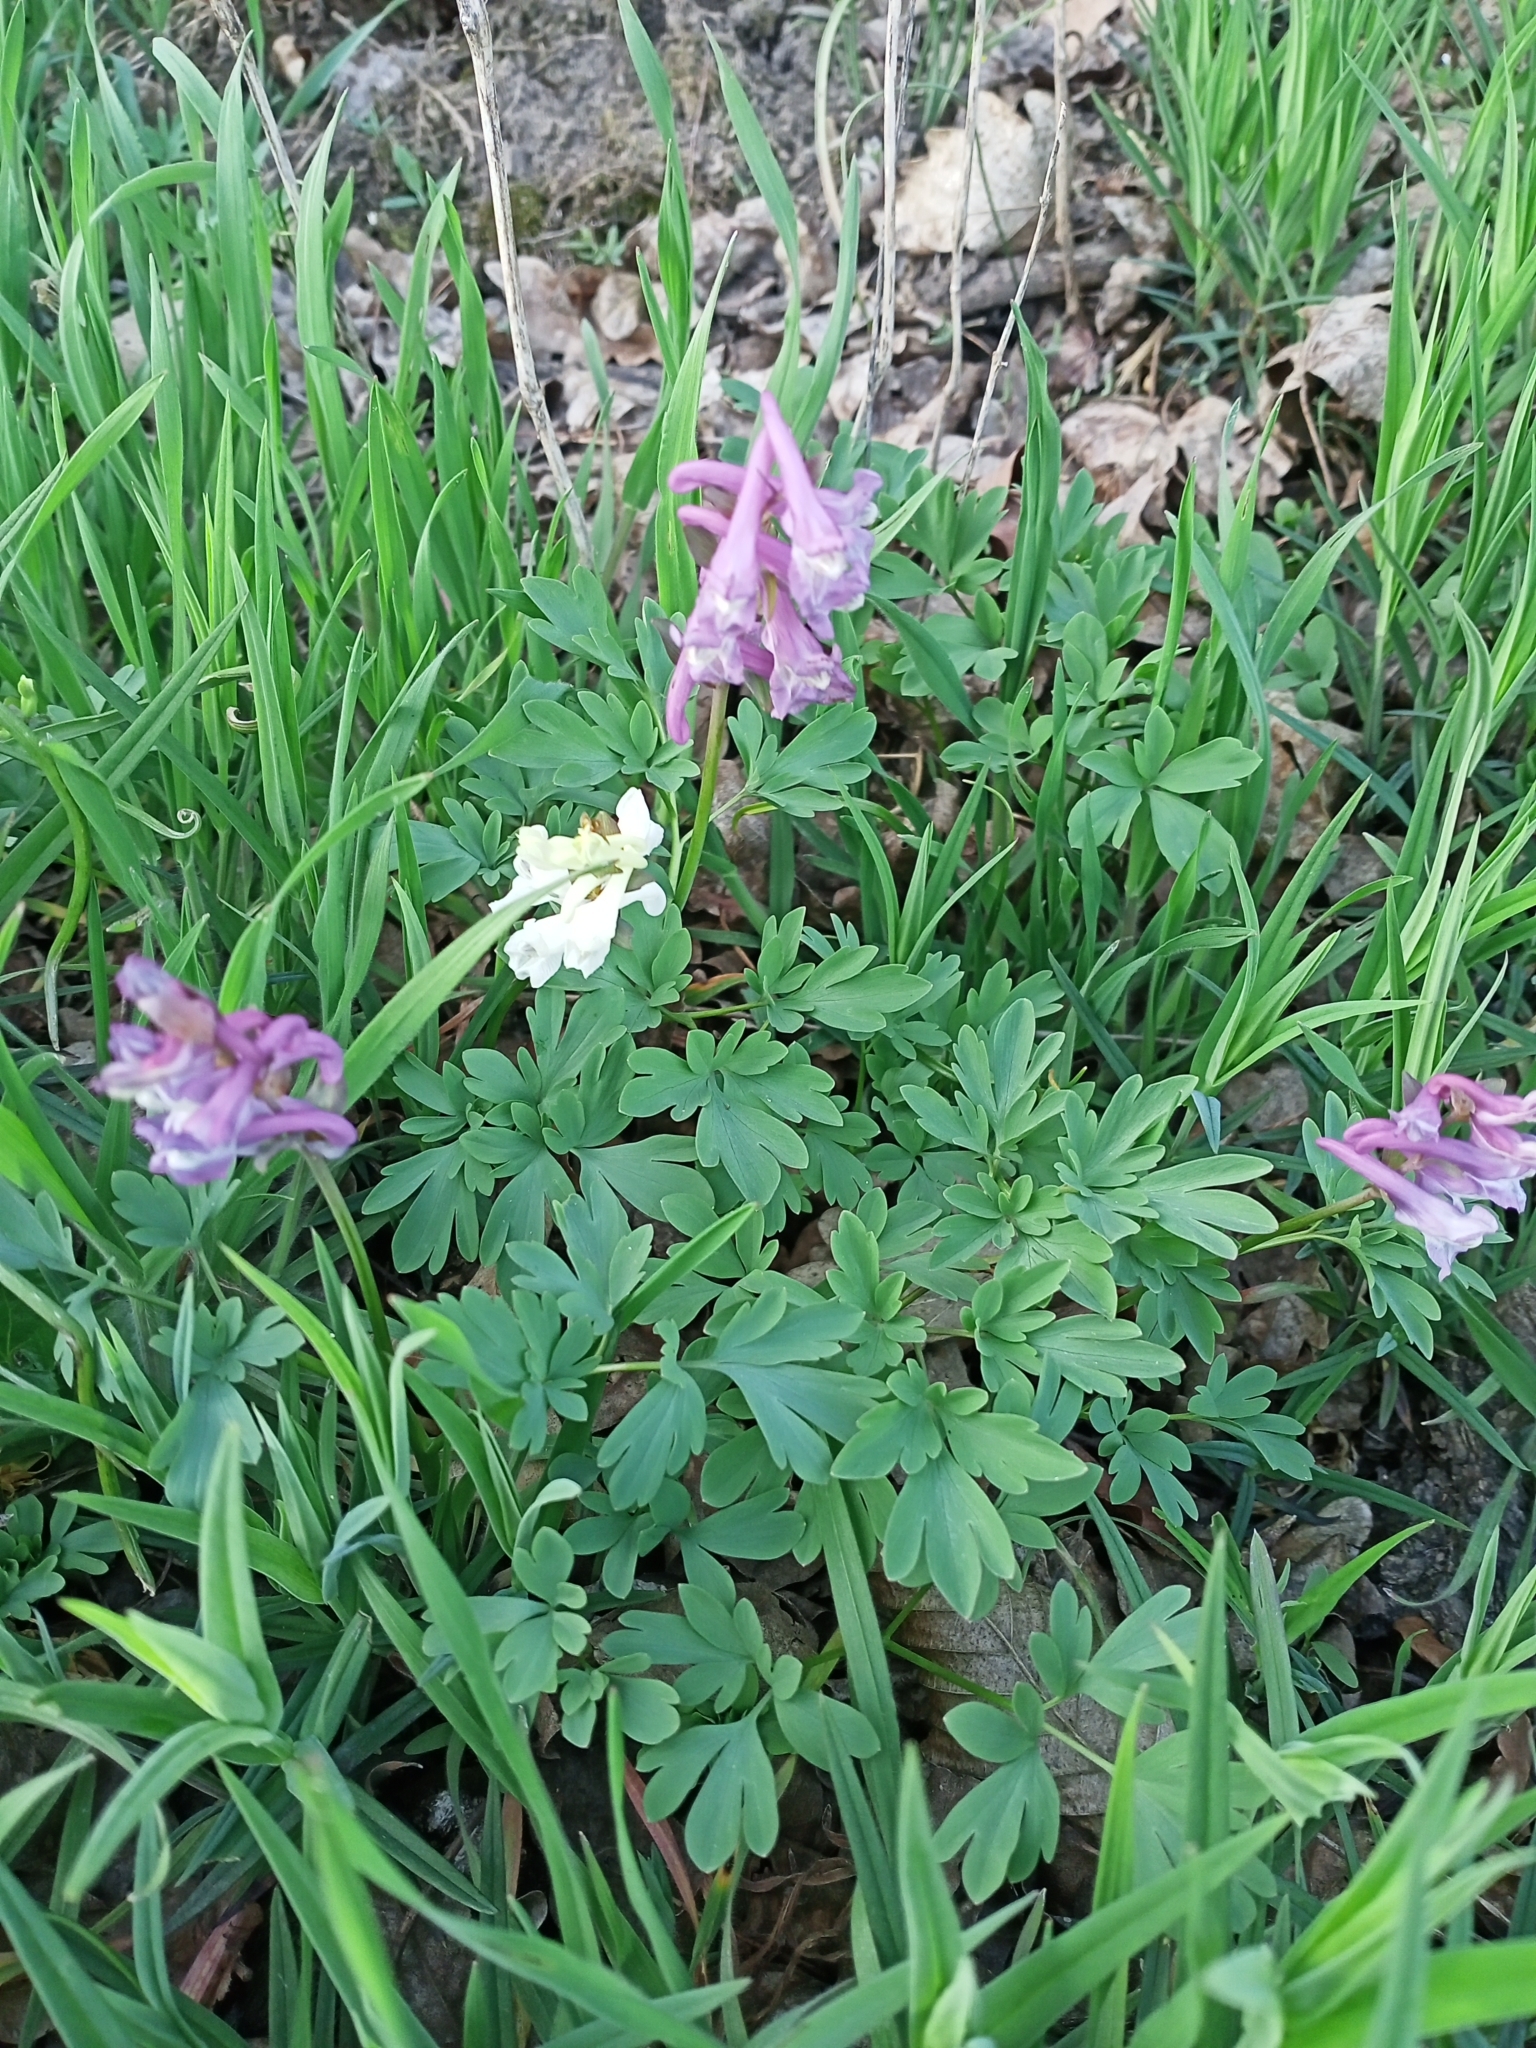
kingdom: Plantae
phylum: Tracheophyta
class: Magnoliopsida
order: Ranunculales
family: Papaveraceae
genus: Corydalis
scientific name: Corydalis cava
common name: Hollowroot
